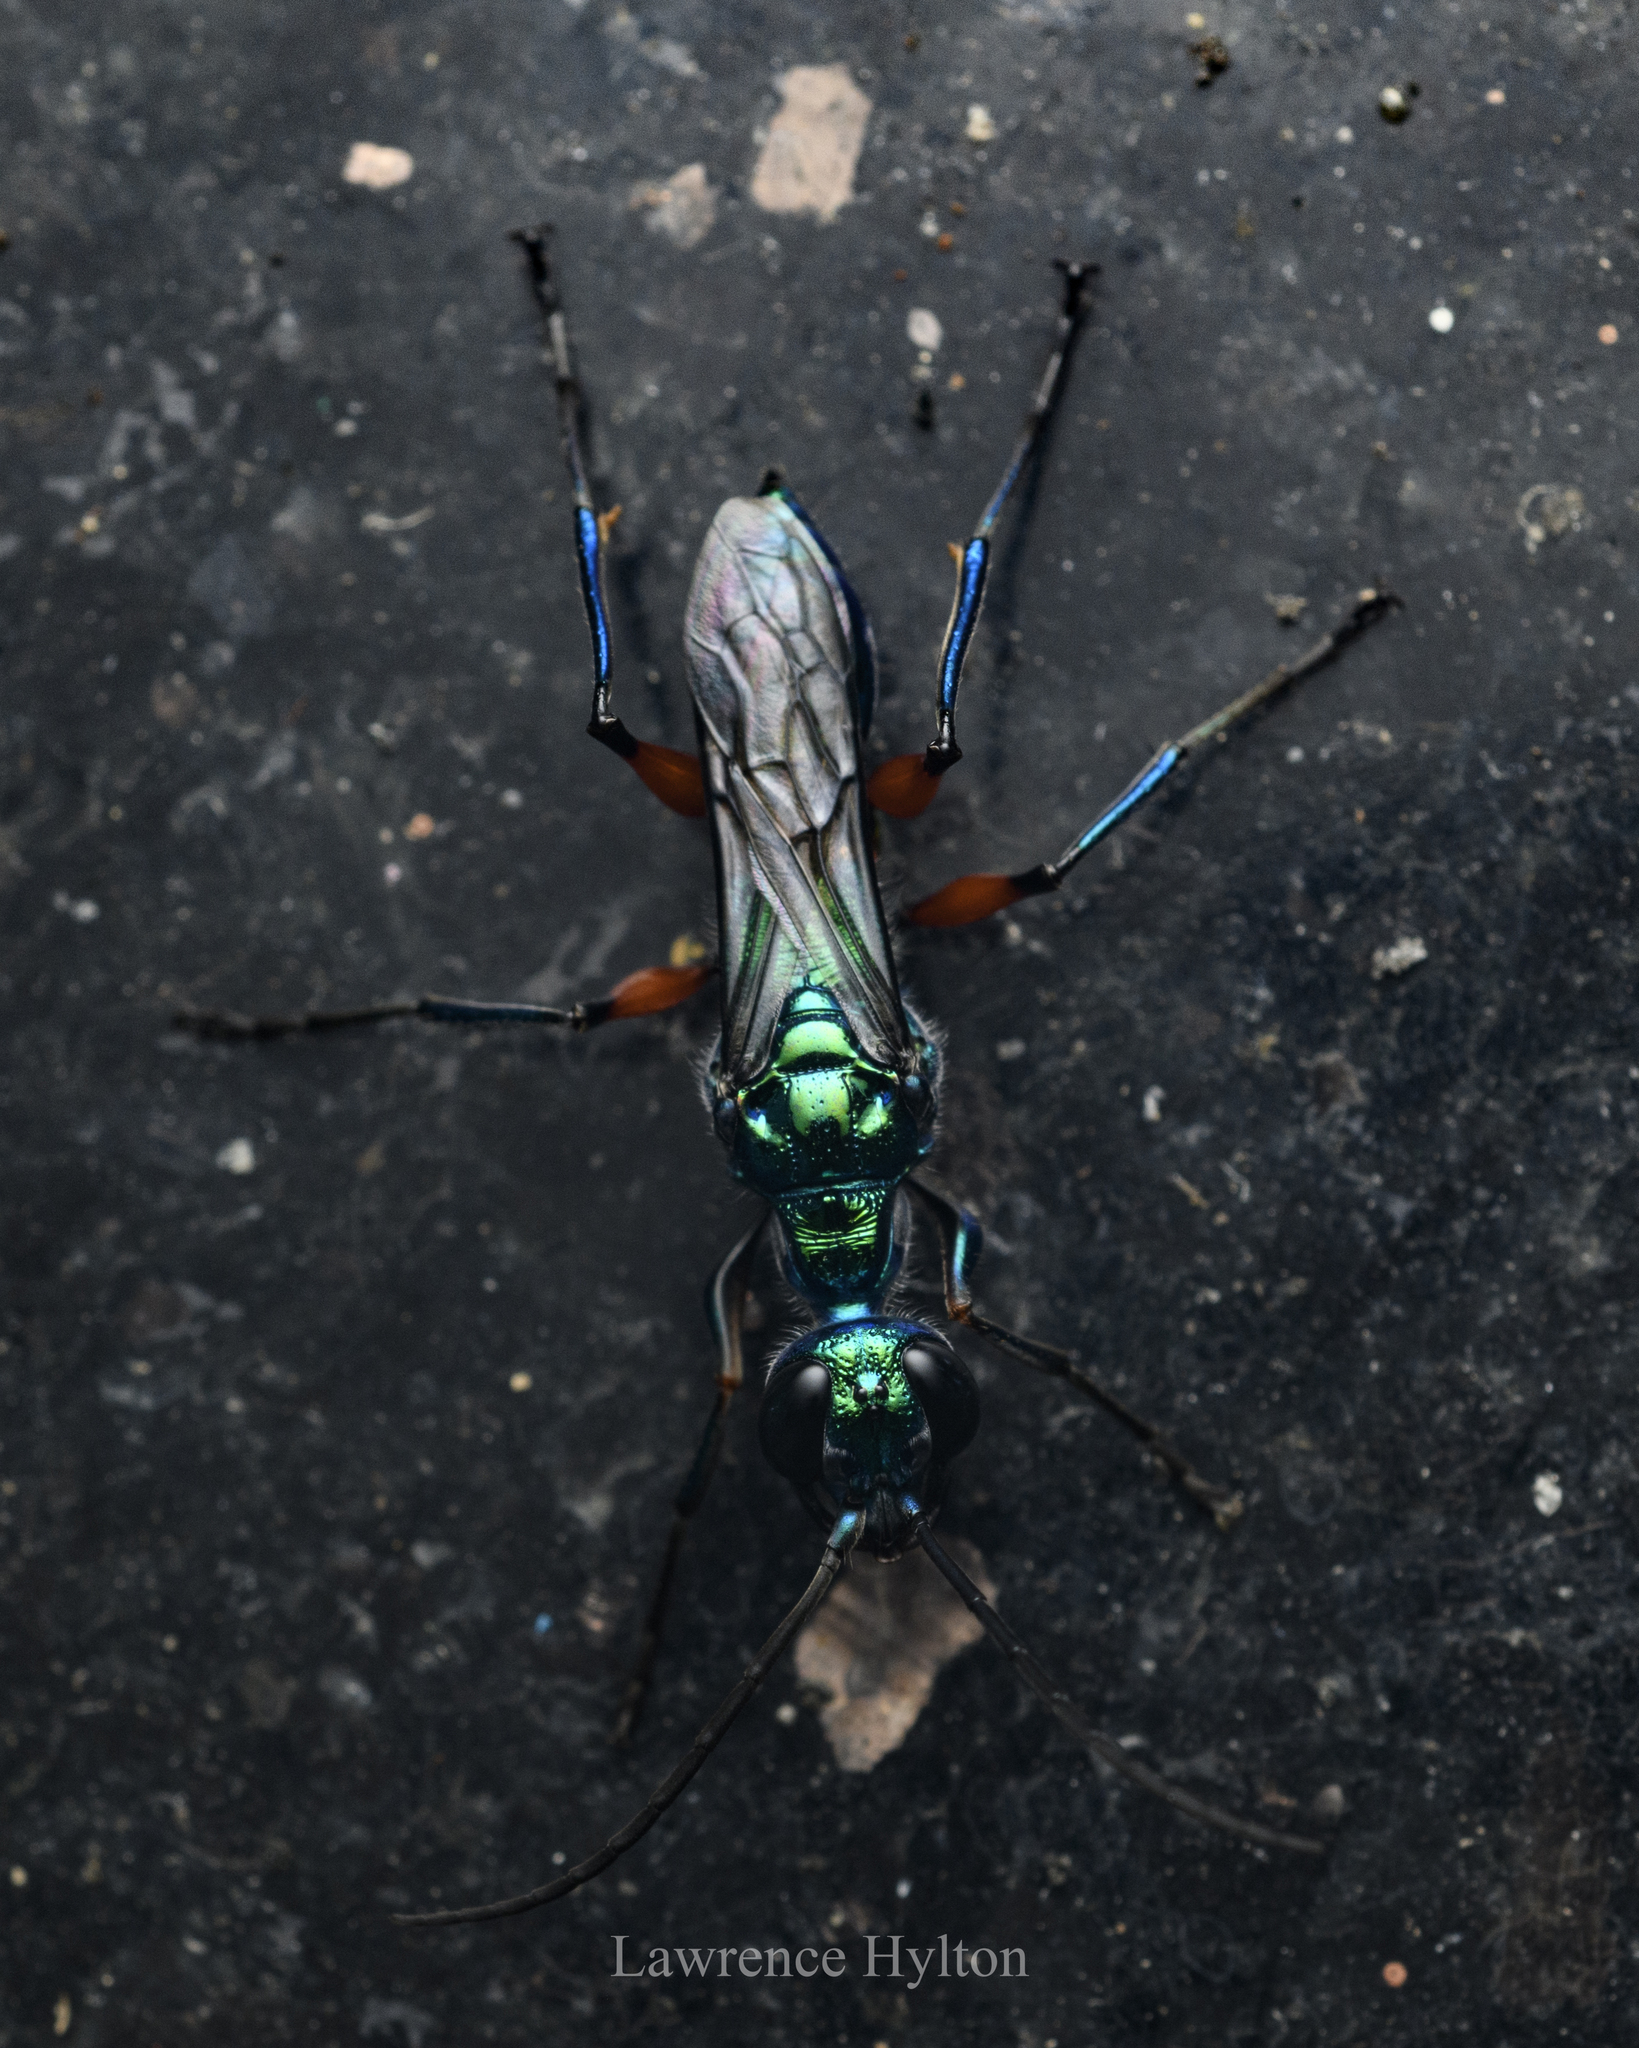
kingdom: Animalia
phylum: Arthropoda
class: Insecta
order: Hymenoptera
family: Ampulicidae
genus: Ampulex
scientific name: Ampulex compressa
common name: Emerald cockroach wasp
